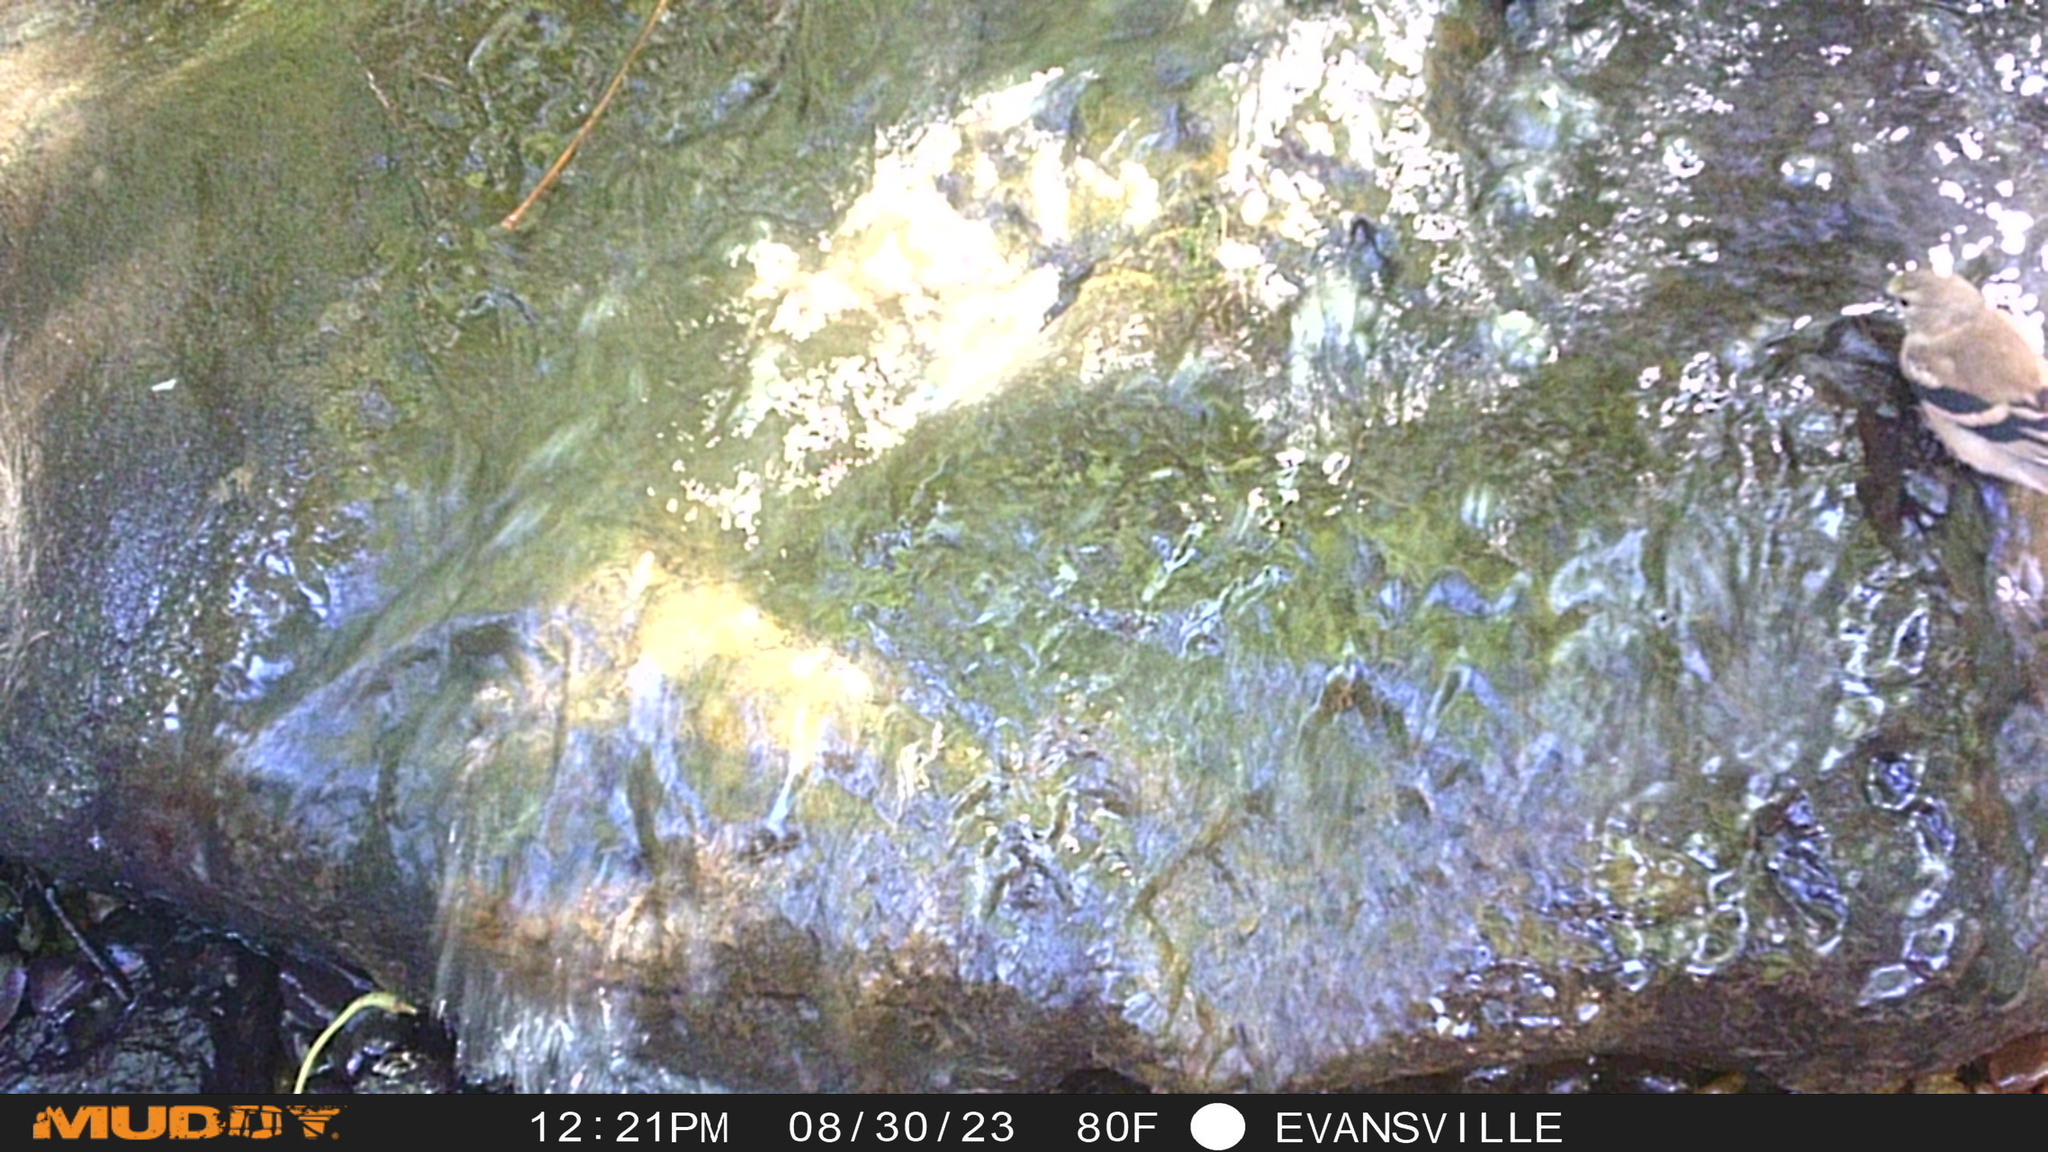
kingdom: Animalia
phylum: Chordata
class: Aves
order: Passeriformes
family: Fringillidae
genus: Spinus
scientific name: Spinus tristis
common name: American goldfinch
